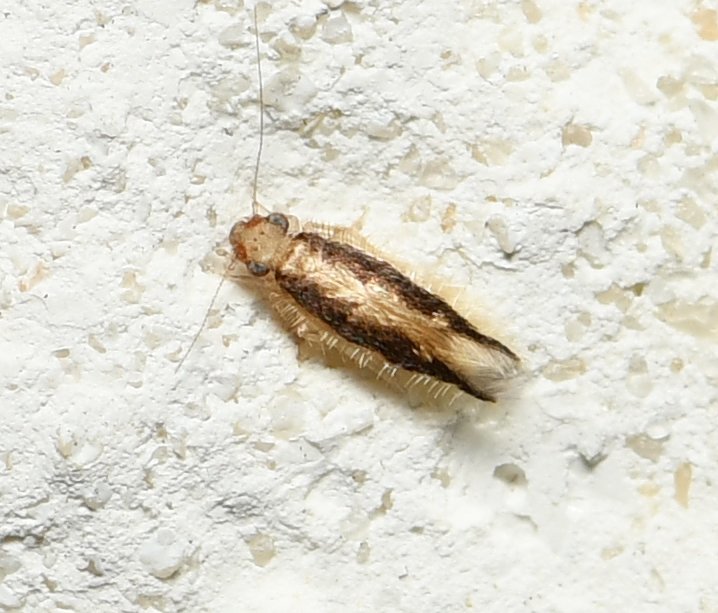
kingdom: Animalia
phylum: Arthropoda
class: Insecta
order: Psocodea
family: Lepidopsocidae
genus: Echmepteryx
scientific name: Echmepteryx madagascariensis
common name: Bark lice
